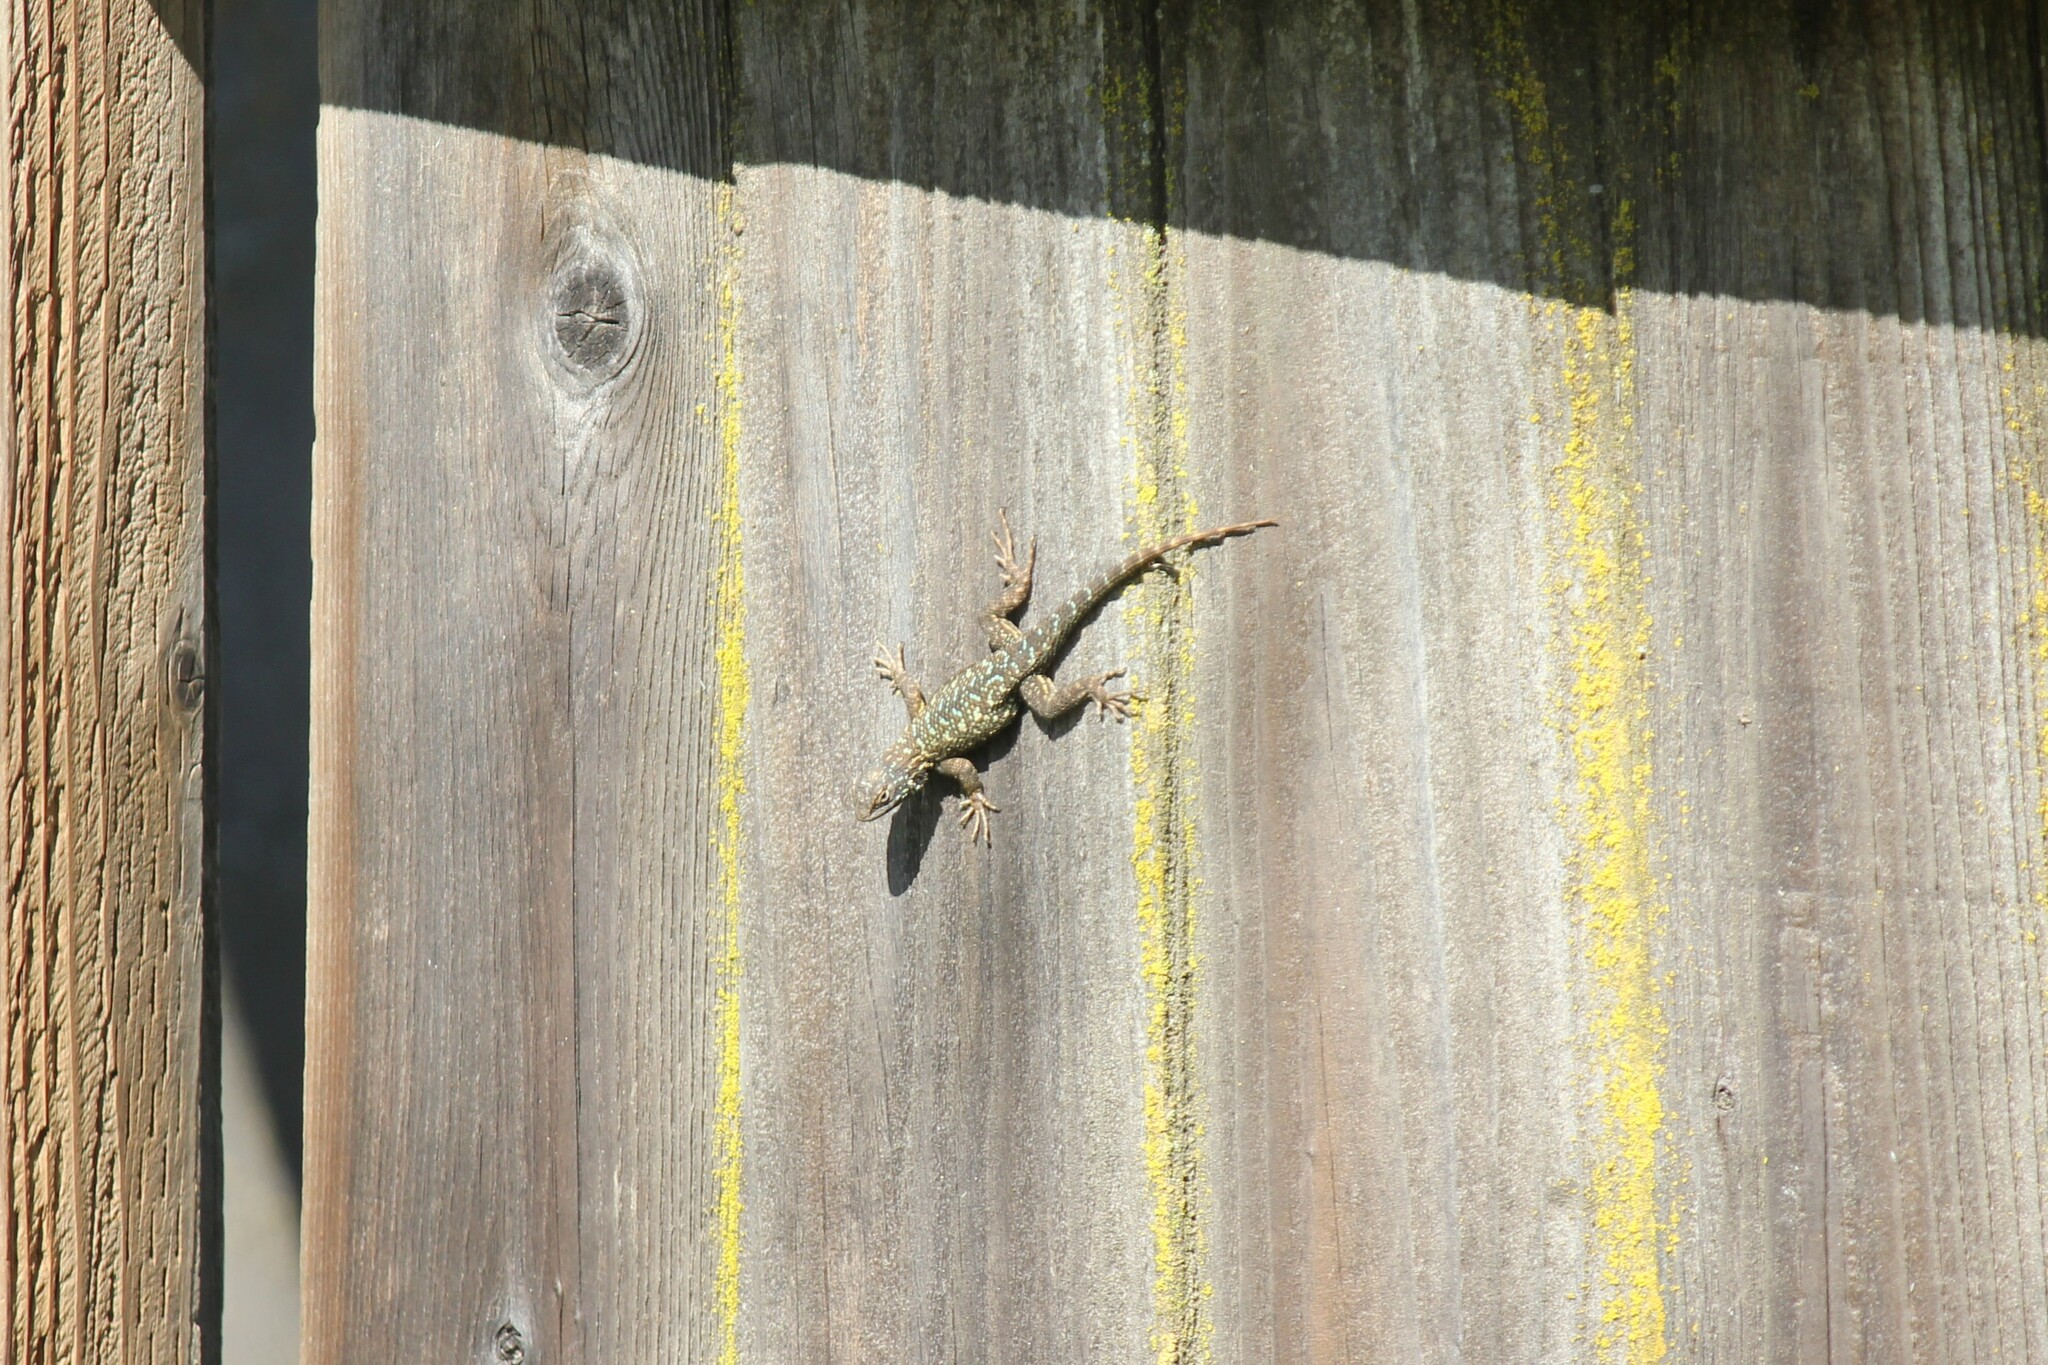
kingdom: Animalia
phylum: Chordata
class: Squamata
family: Phrynosomatidae
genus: Sceloporus
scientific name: Sceloporus occidentalis
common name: Western fence lizard
